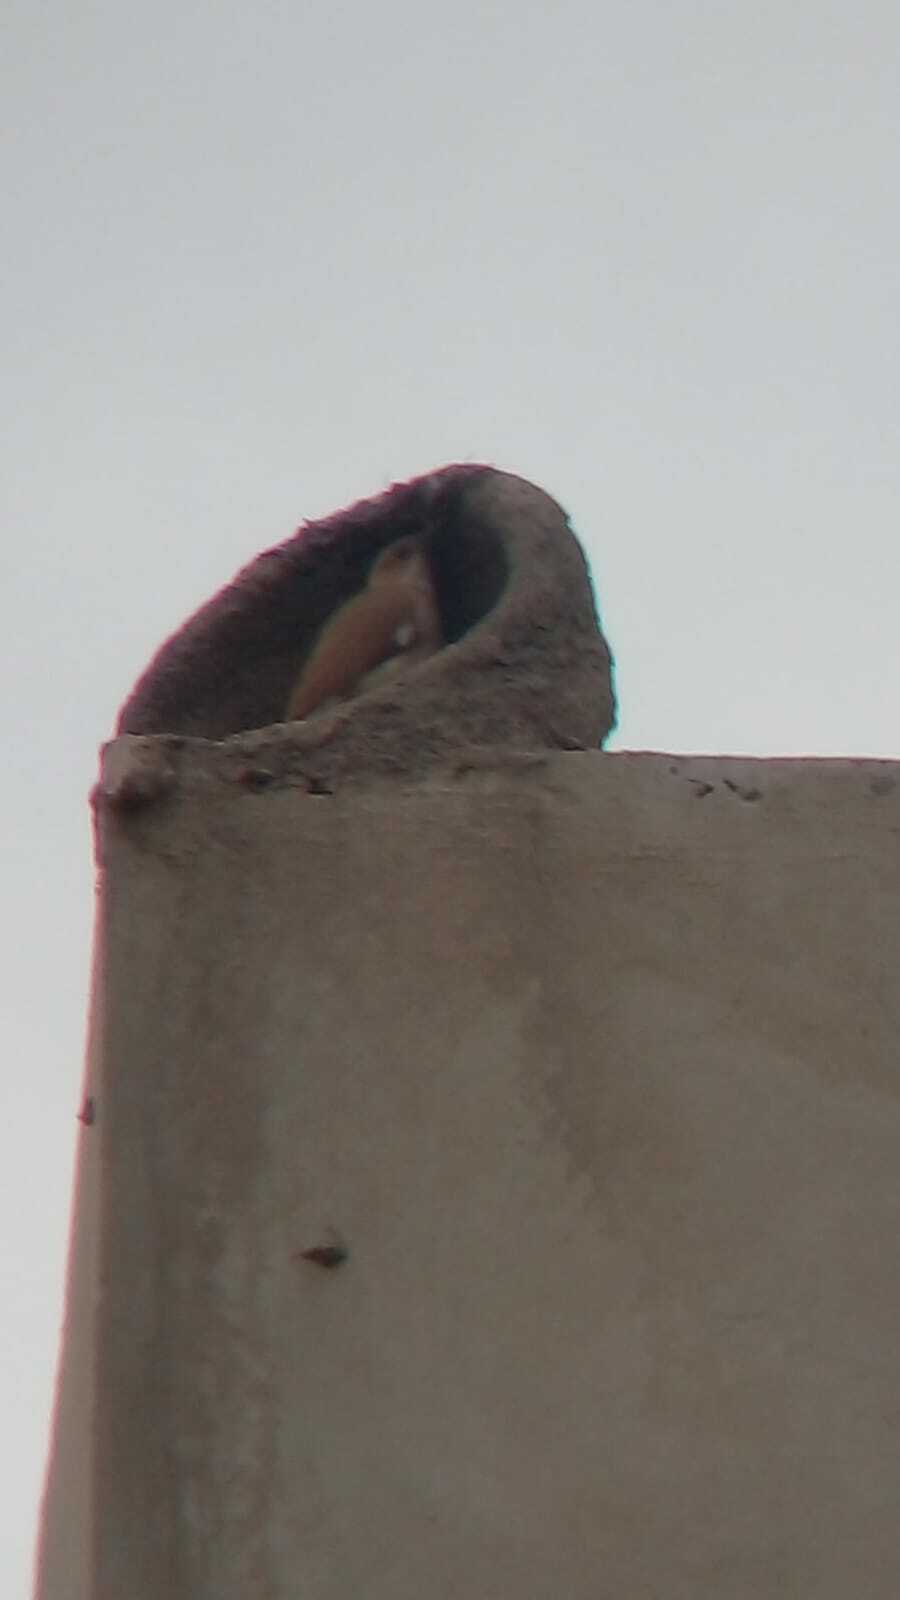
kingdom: Animalia
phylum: Chordata
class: Aves
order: Passeriformes
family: Furnariidae
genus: Furnarius
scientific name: Furnarius rufus
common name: Rufous hornero
